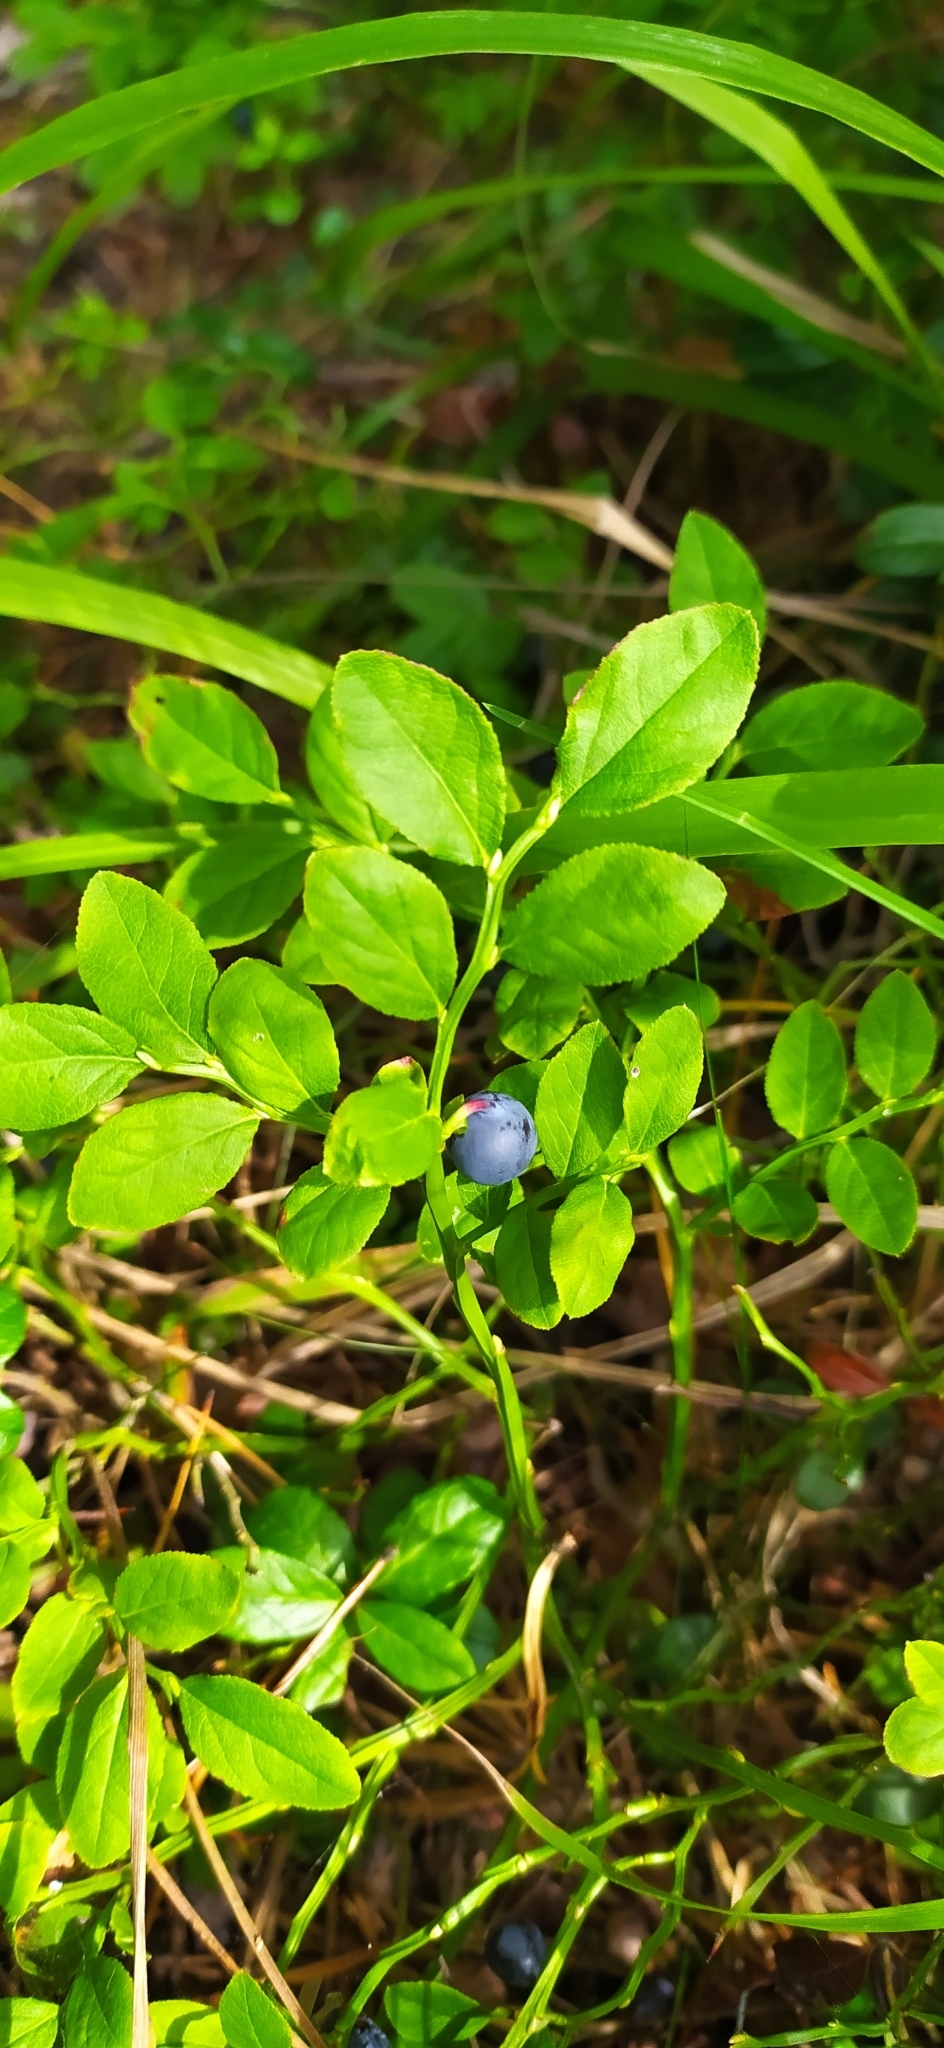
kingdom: Plantae
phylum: Tracheophyta
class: Magnoliopsida
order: Ericales
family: Ericaceae
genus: Vaccinium
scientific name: Vaccinium myrtillus
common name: Bilberry
